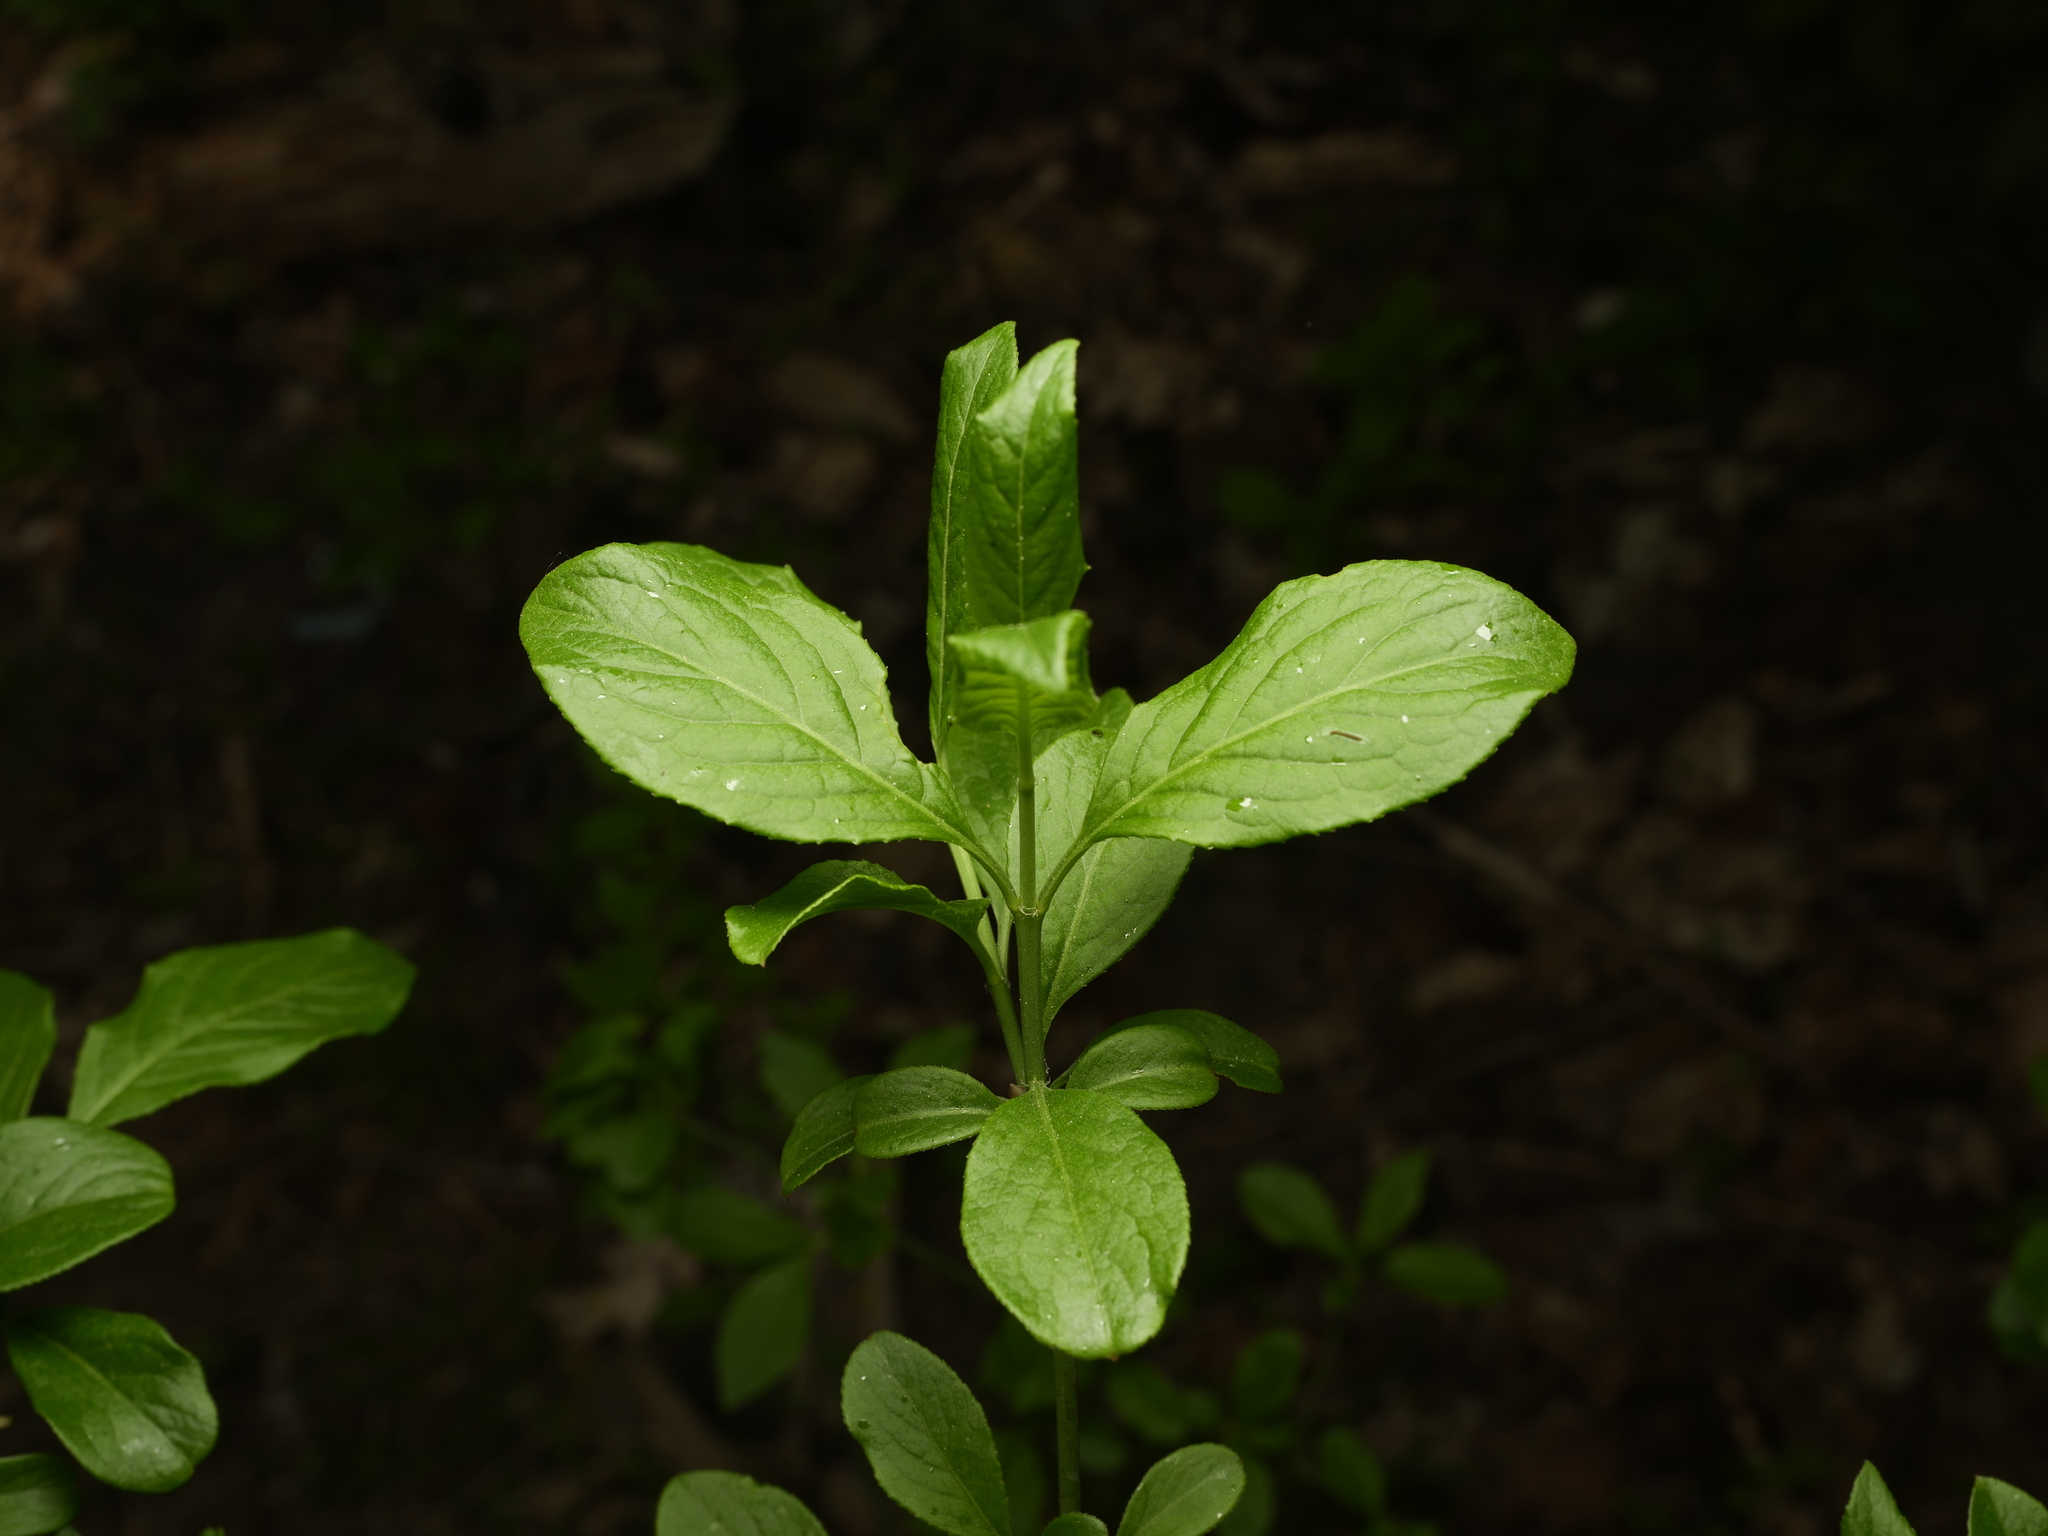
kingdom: Plantae
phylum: Tracheophyta
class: Magnoliopsida
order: Celastrales
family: Celastraceae
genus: Euonymus
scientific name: Euonymus europaeus
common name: Spindle
